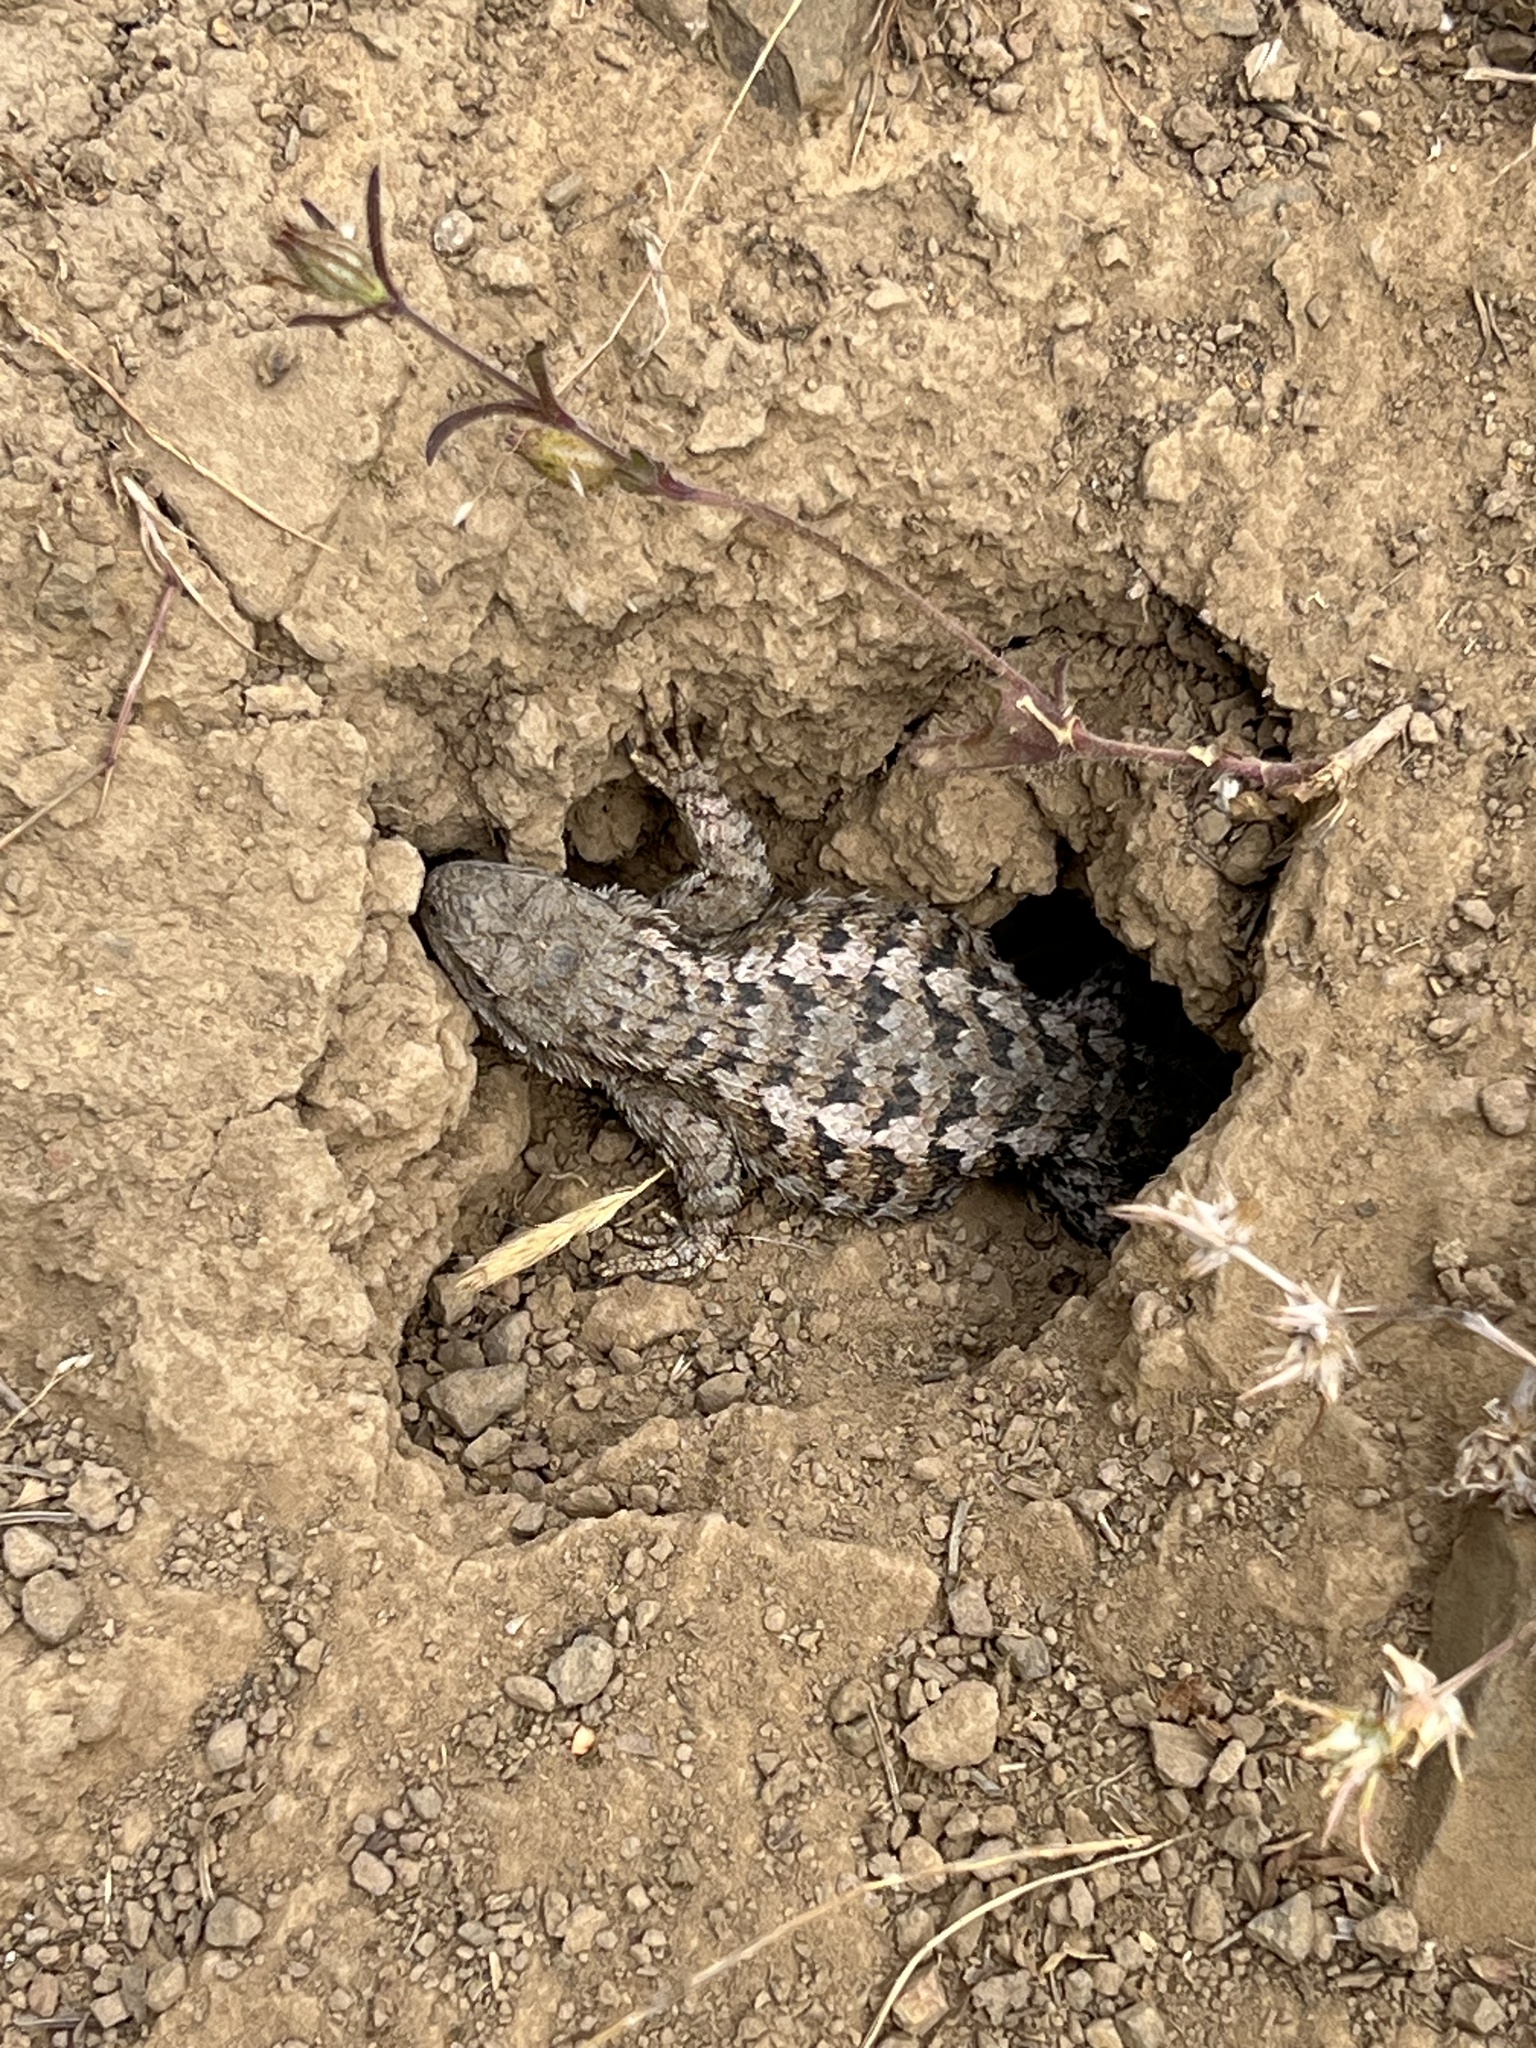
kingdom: Animalia
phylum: Chordata
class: Squamata
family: Phrynosomatidae
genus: Sceloporus
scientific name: Sceloporus occidentalis
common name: Western fence lizard
